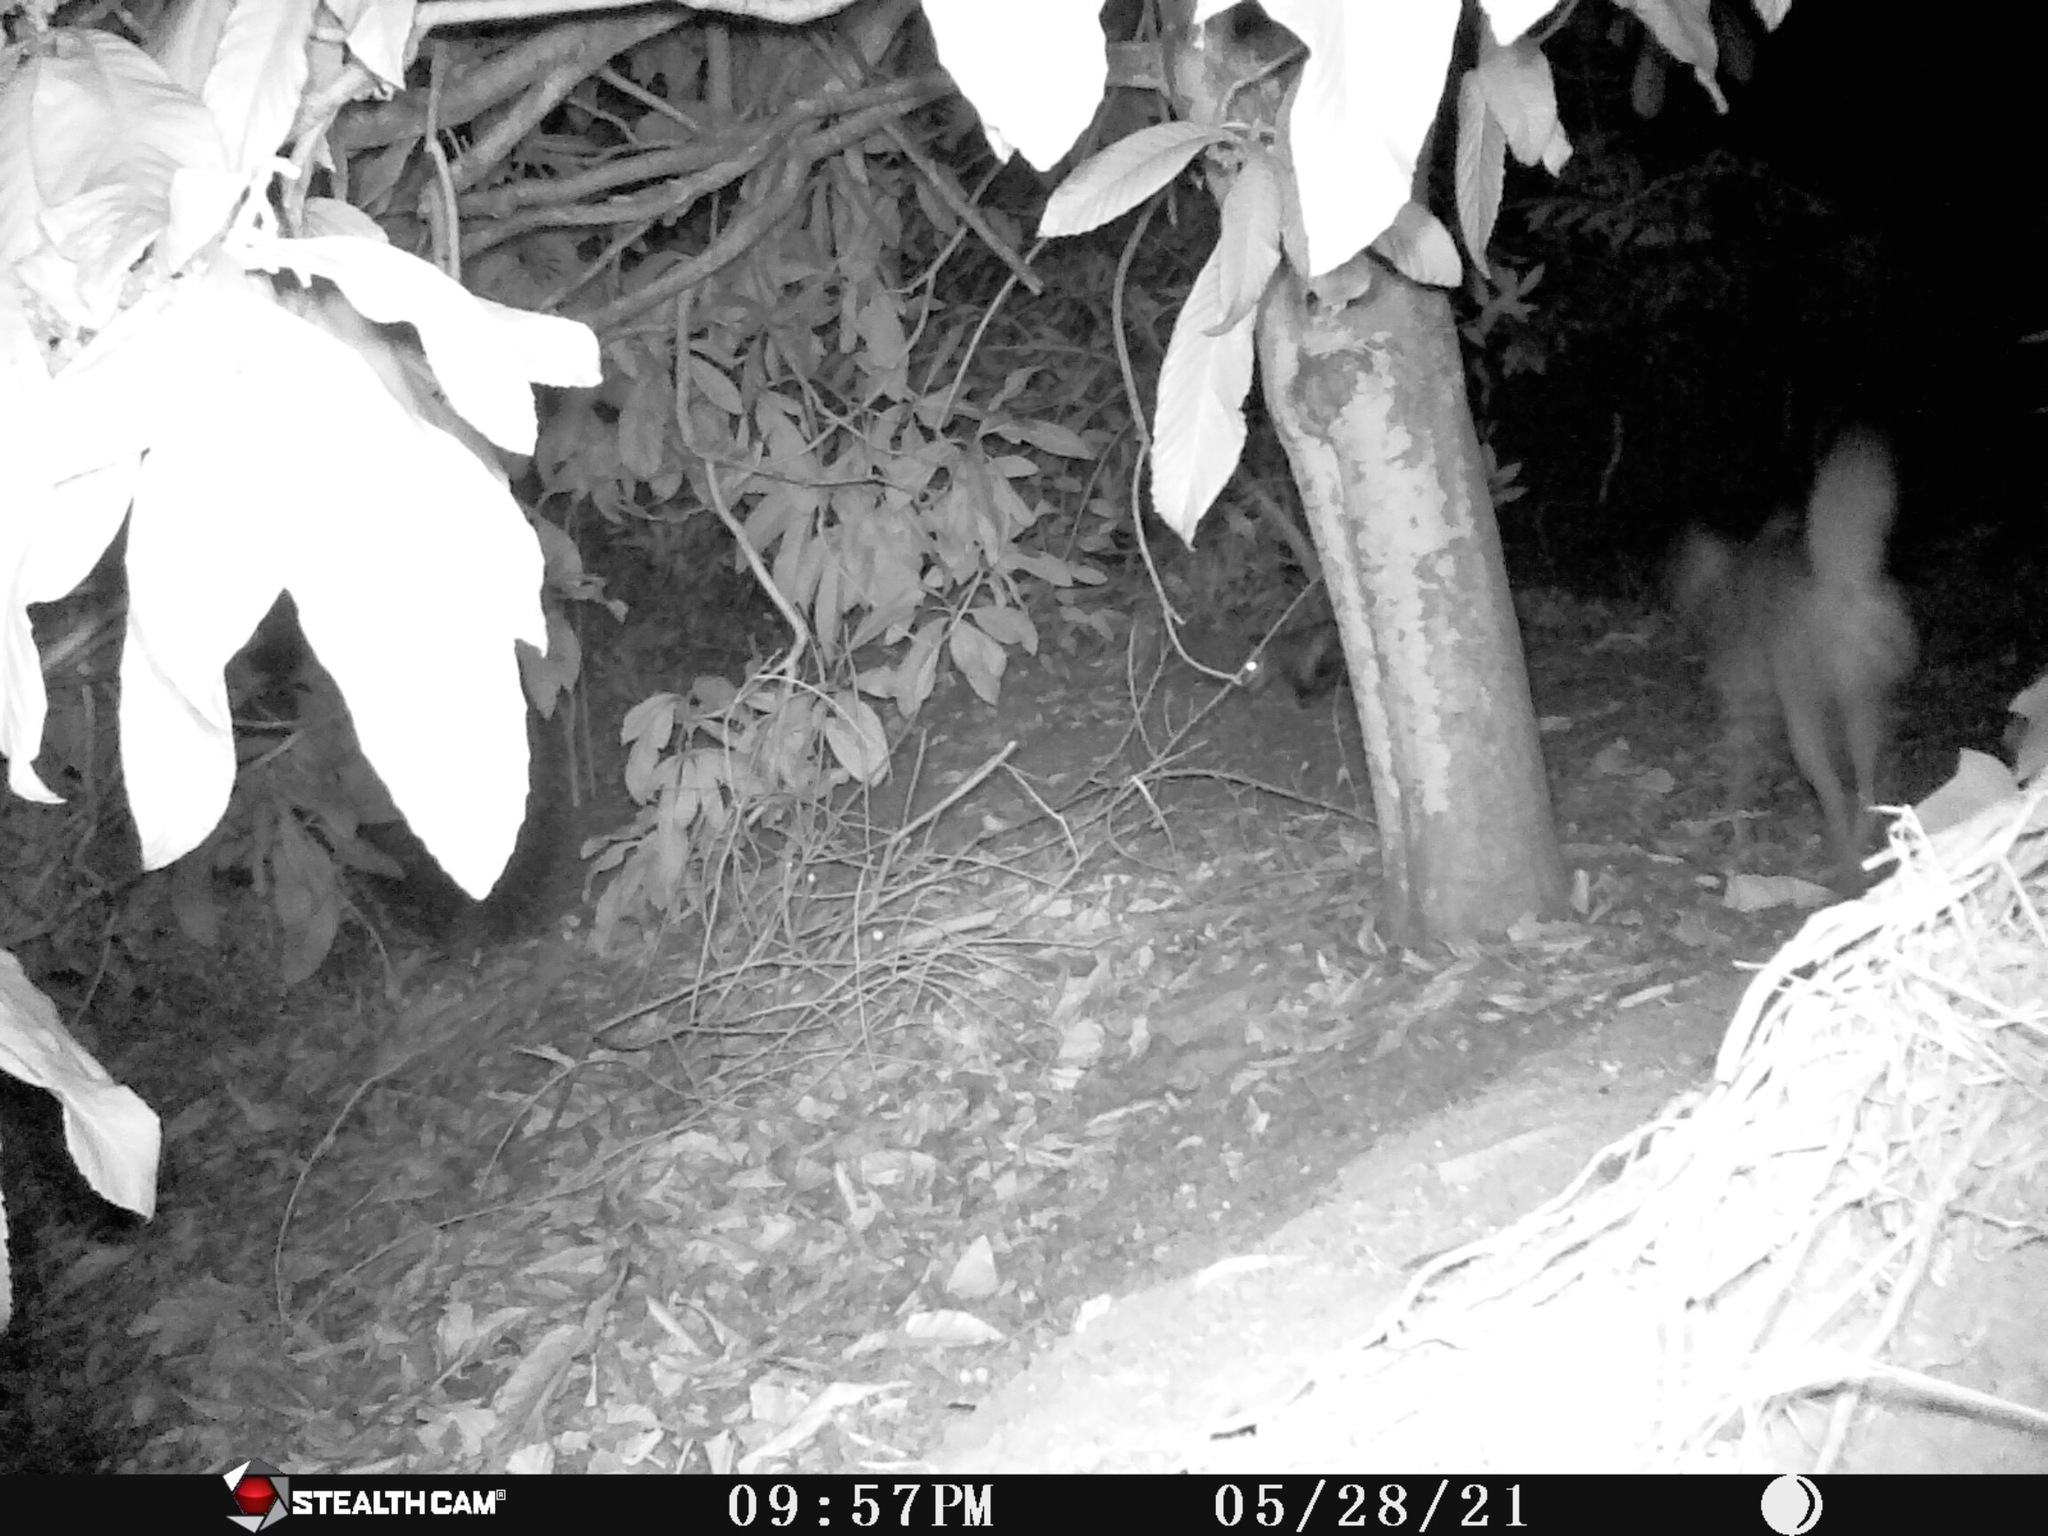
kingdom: Animalia
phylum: Chordata
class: Mammalia
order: Carnivora
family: Canidae
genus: Canis
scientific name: Canis latrans
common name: Coyote
